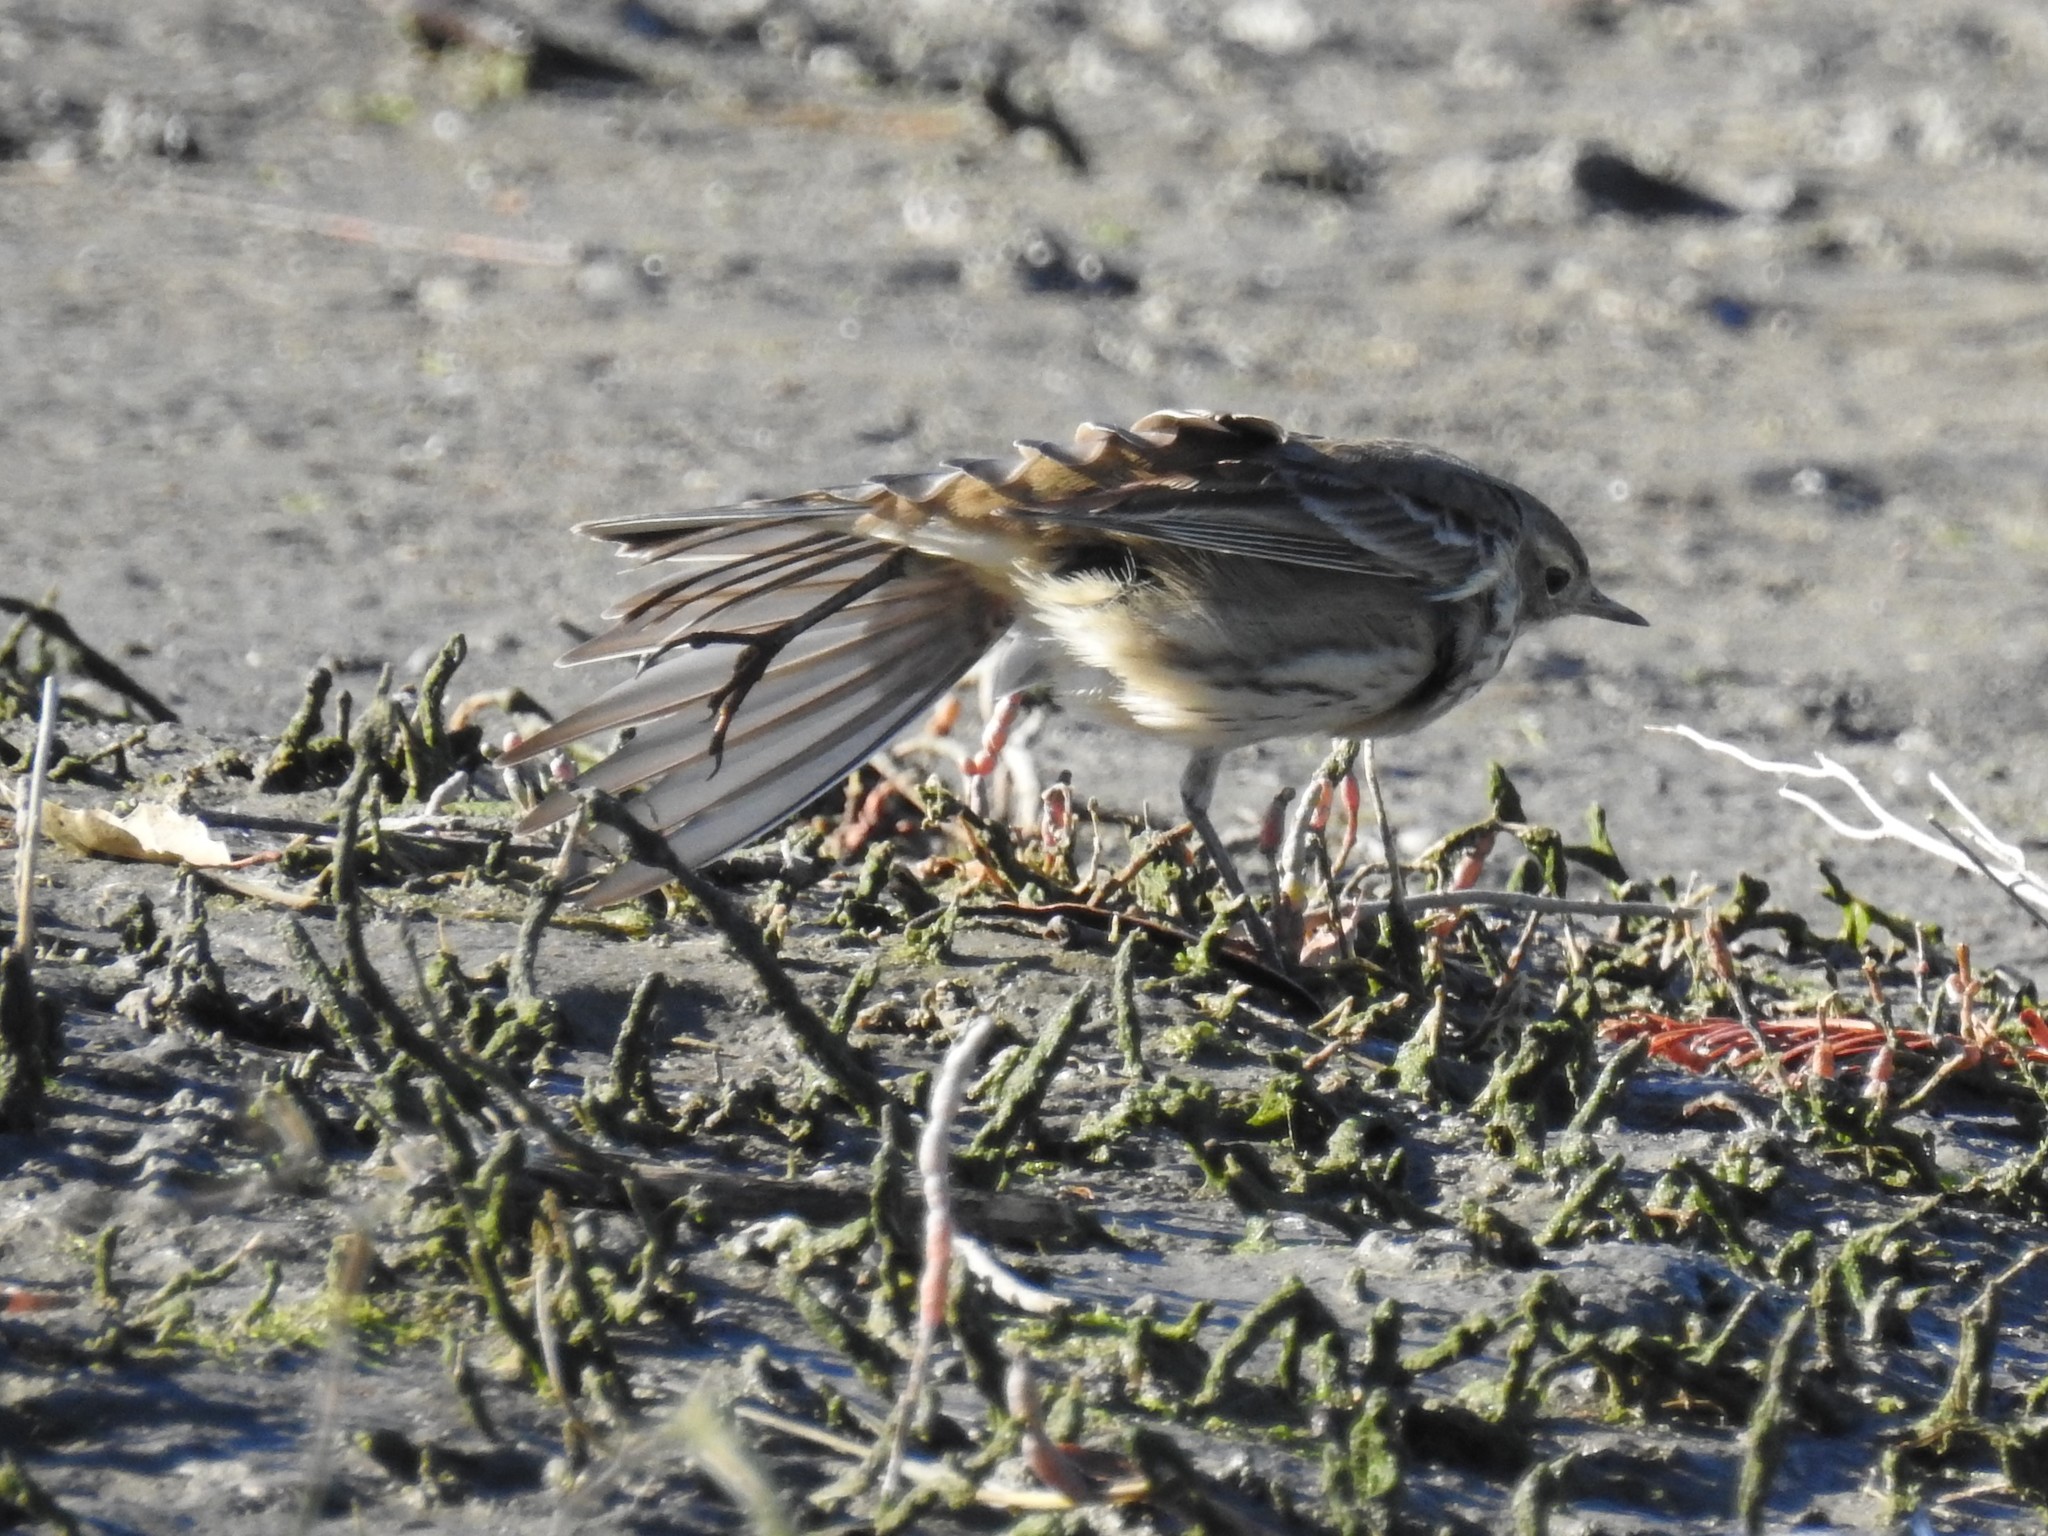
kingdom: Animalia
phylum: Chordata
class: Aves
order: Passeriformes
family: Motacillidae
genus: Anthus
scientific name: Anthus rubescens
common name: Buff-bellied pipit
